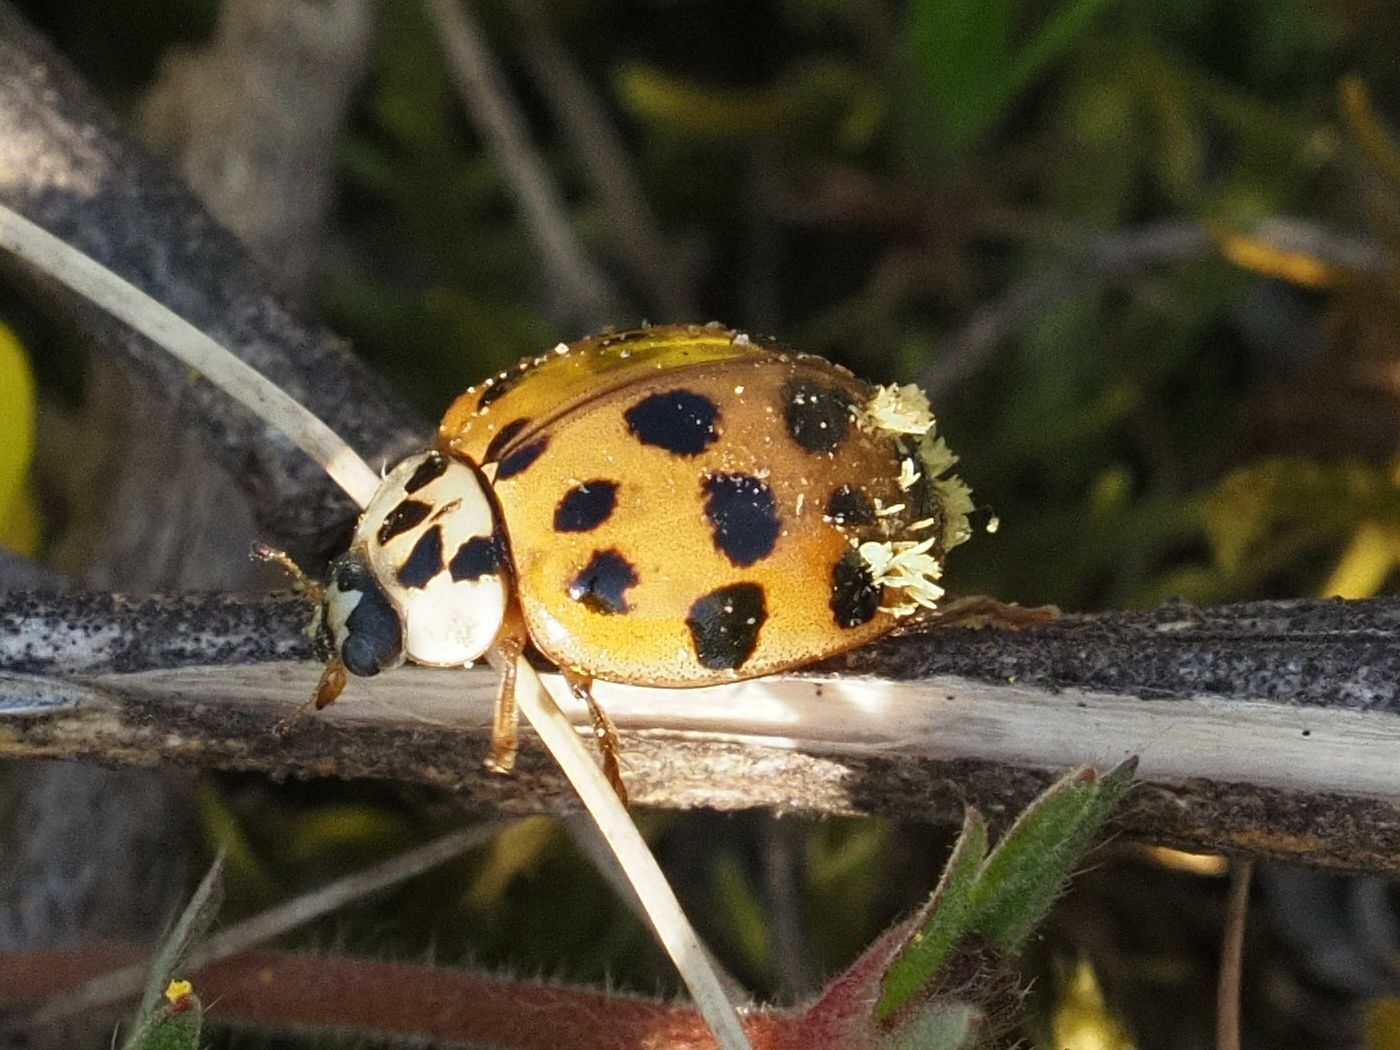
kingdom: Animalia
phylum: Arthropoda
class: Insecta
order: Coleoptera
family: Coccinellidae
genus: Harmonia
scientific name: Harmonia axyridis
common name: Harlequin ladybird
